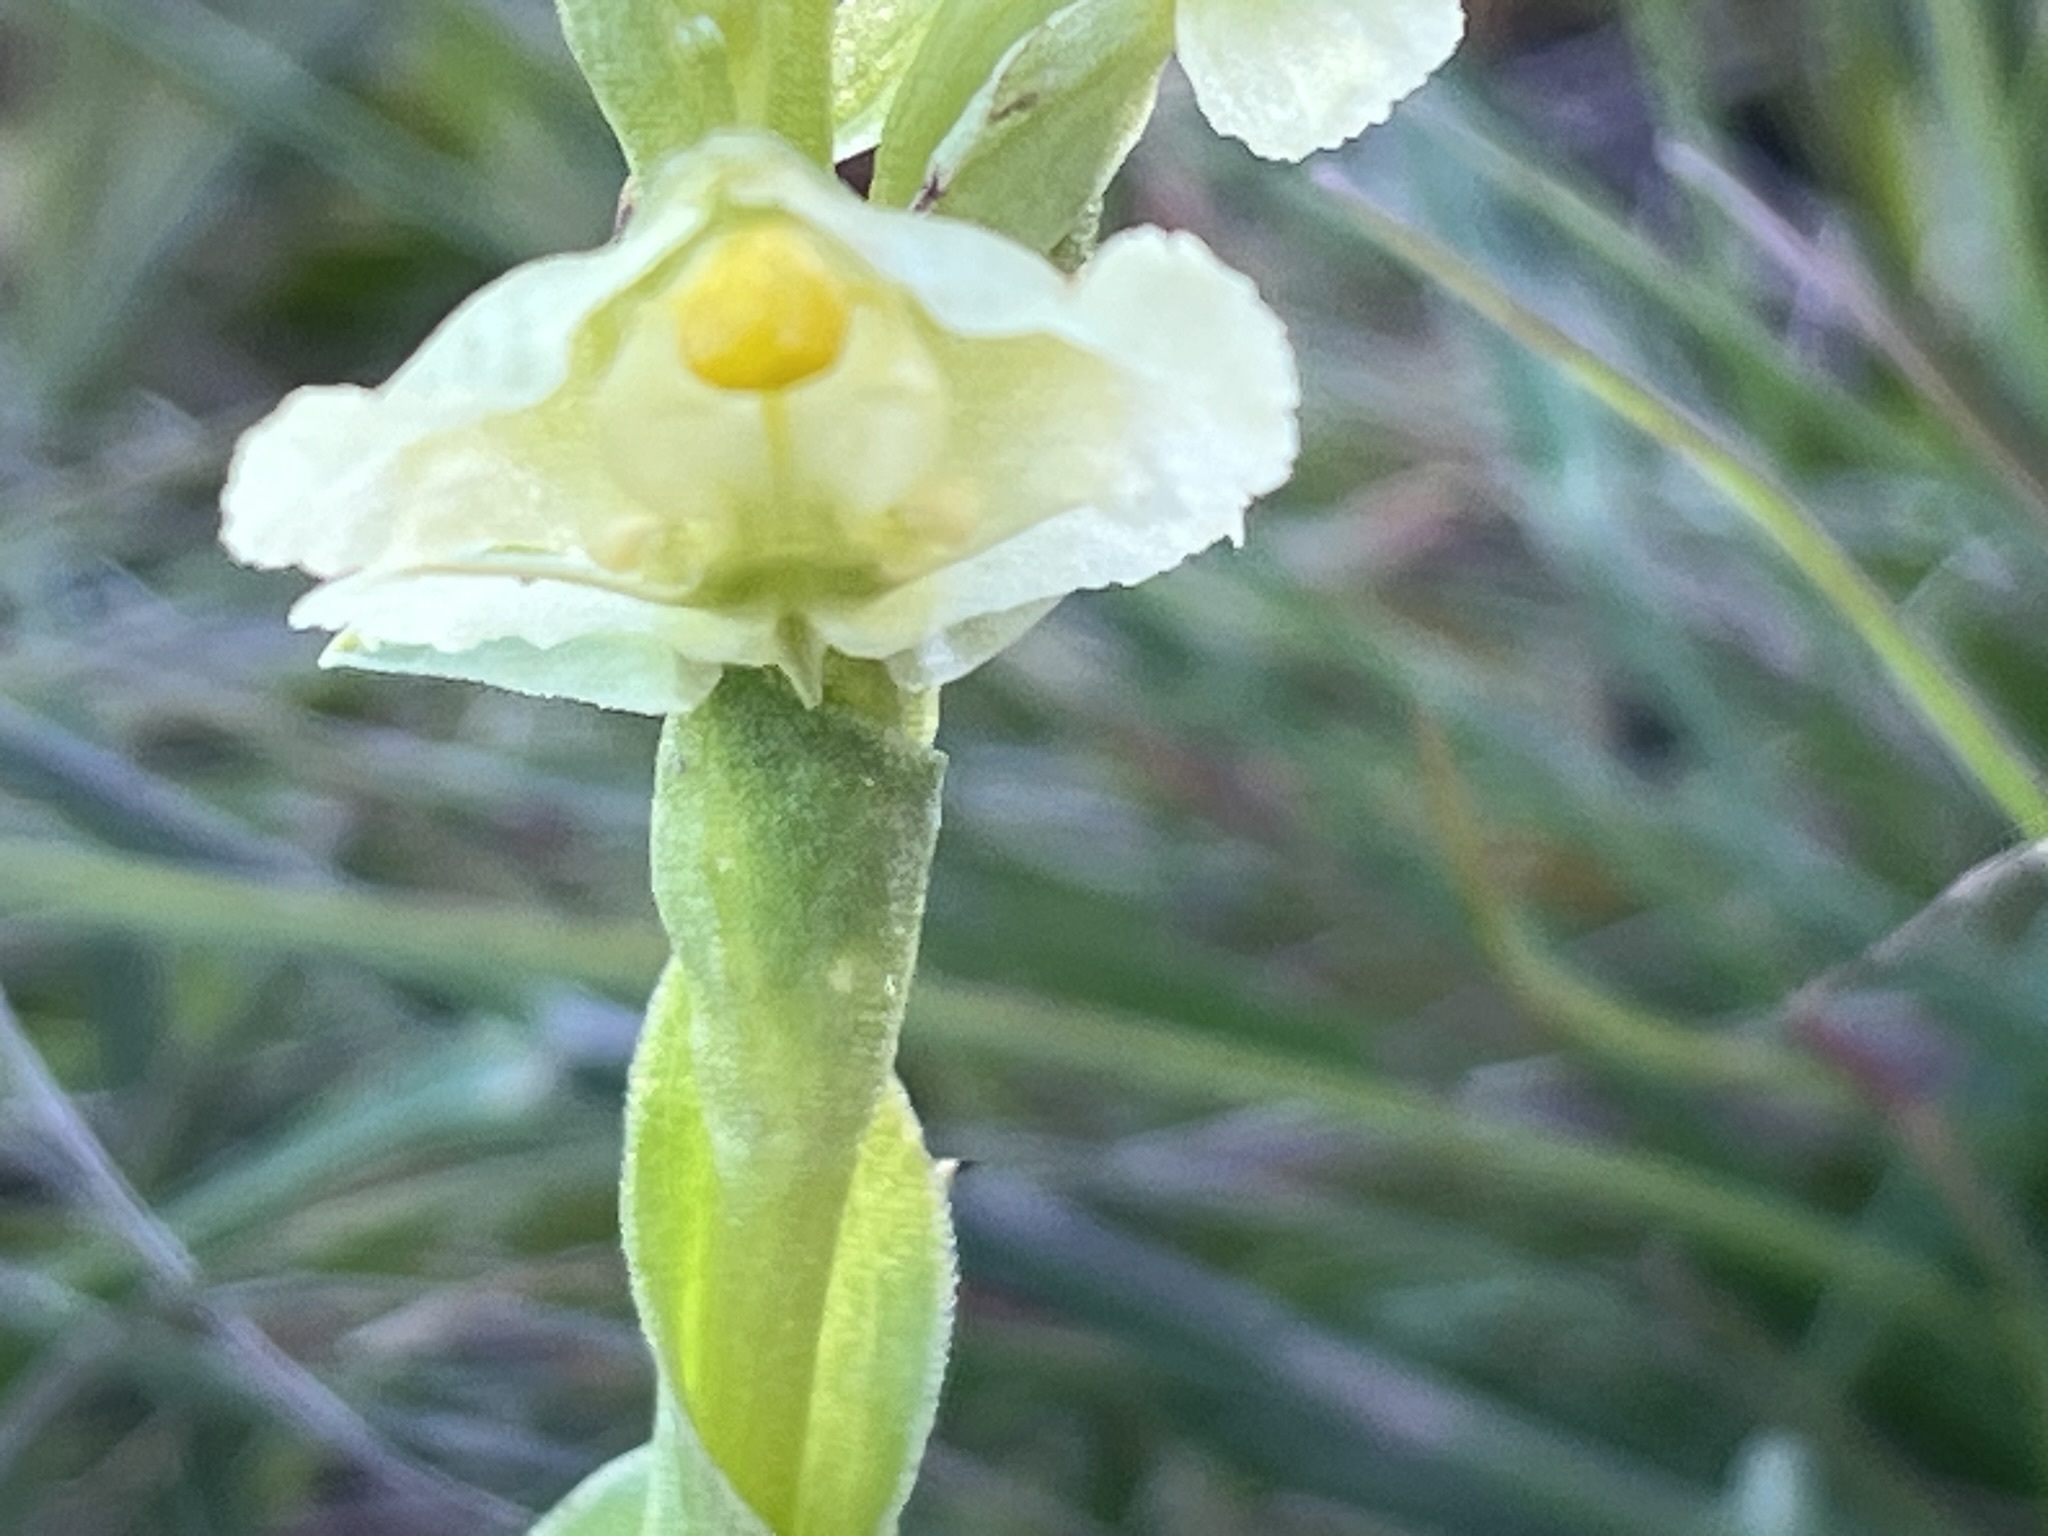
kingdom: Plantae
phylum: Tracheophyta
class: Liliopsida
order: Asparagales
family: Orchidaceae
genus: Pterygodium
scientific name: Pterygodium alatum
